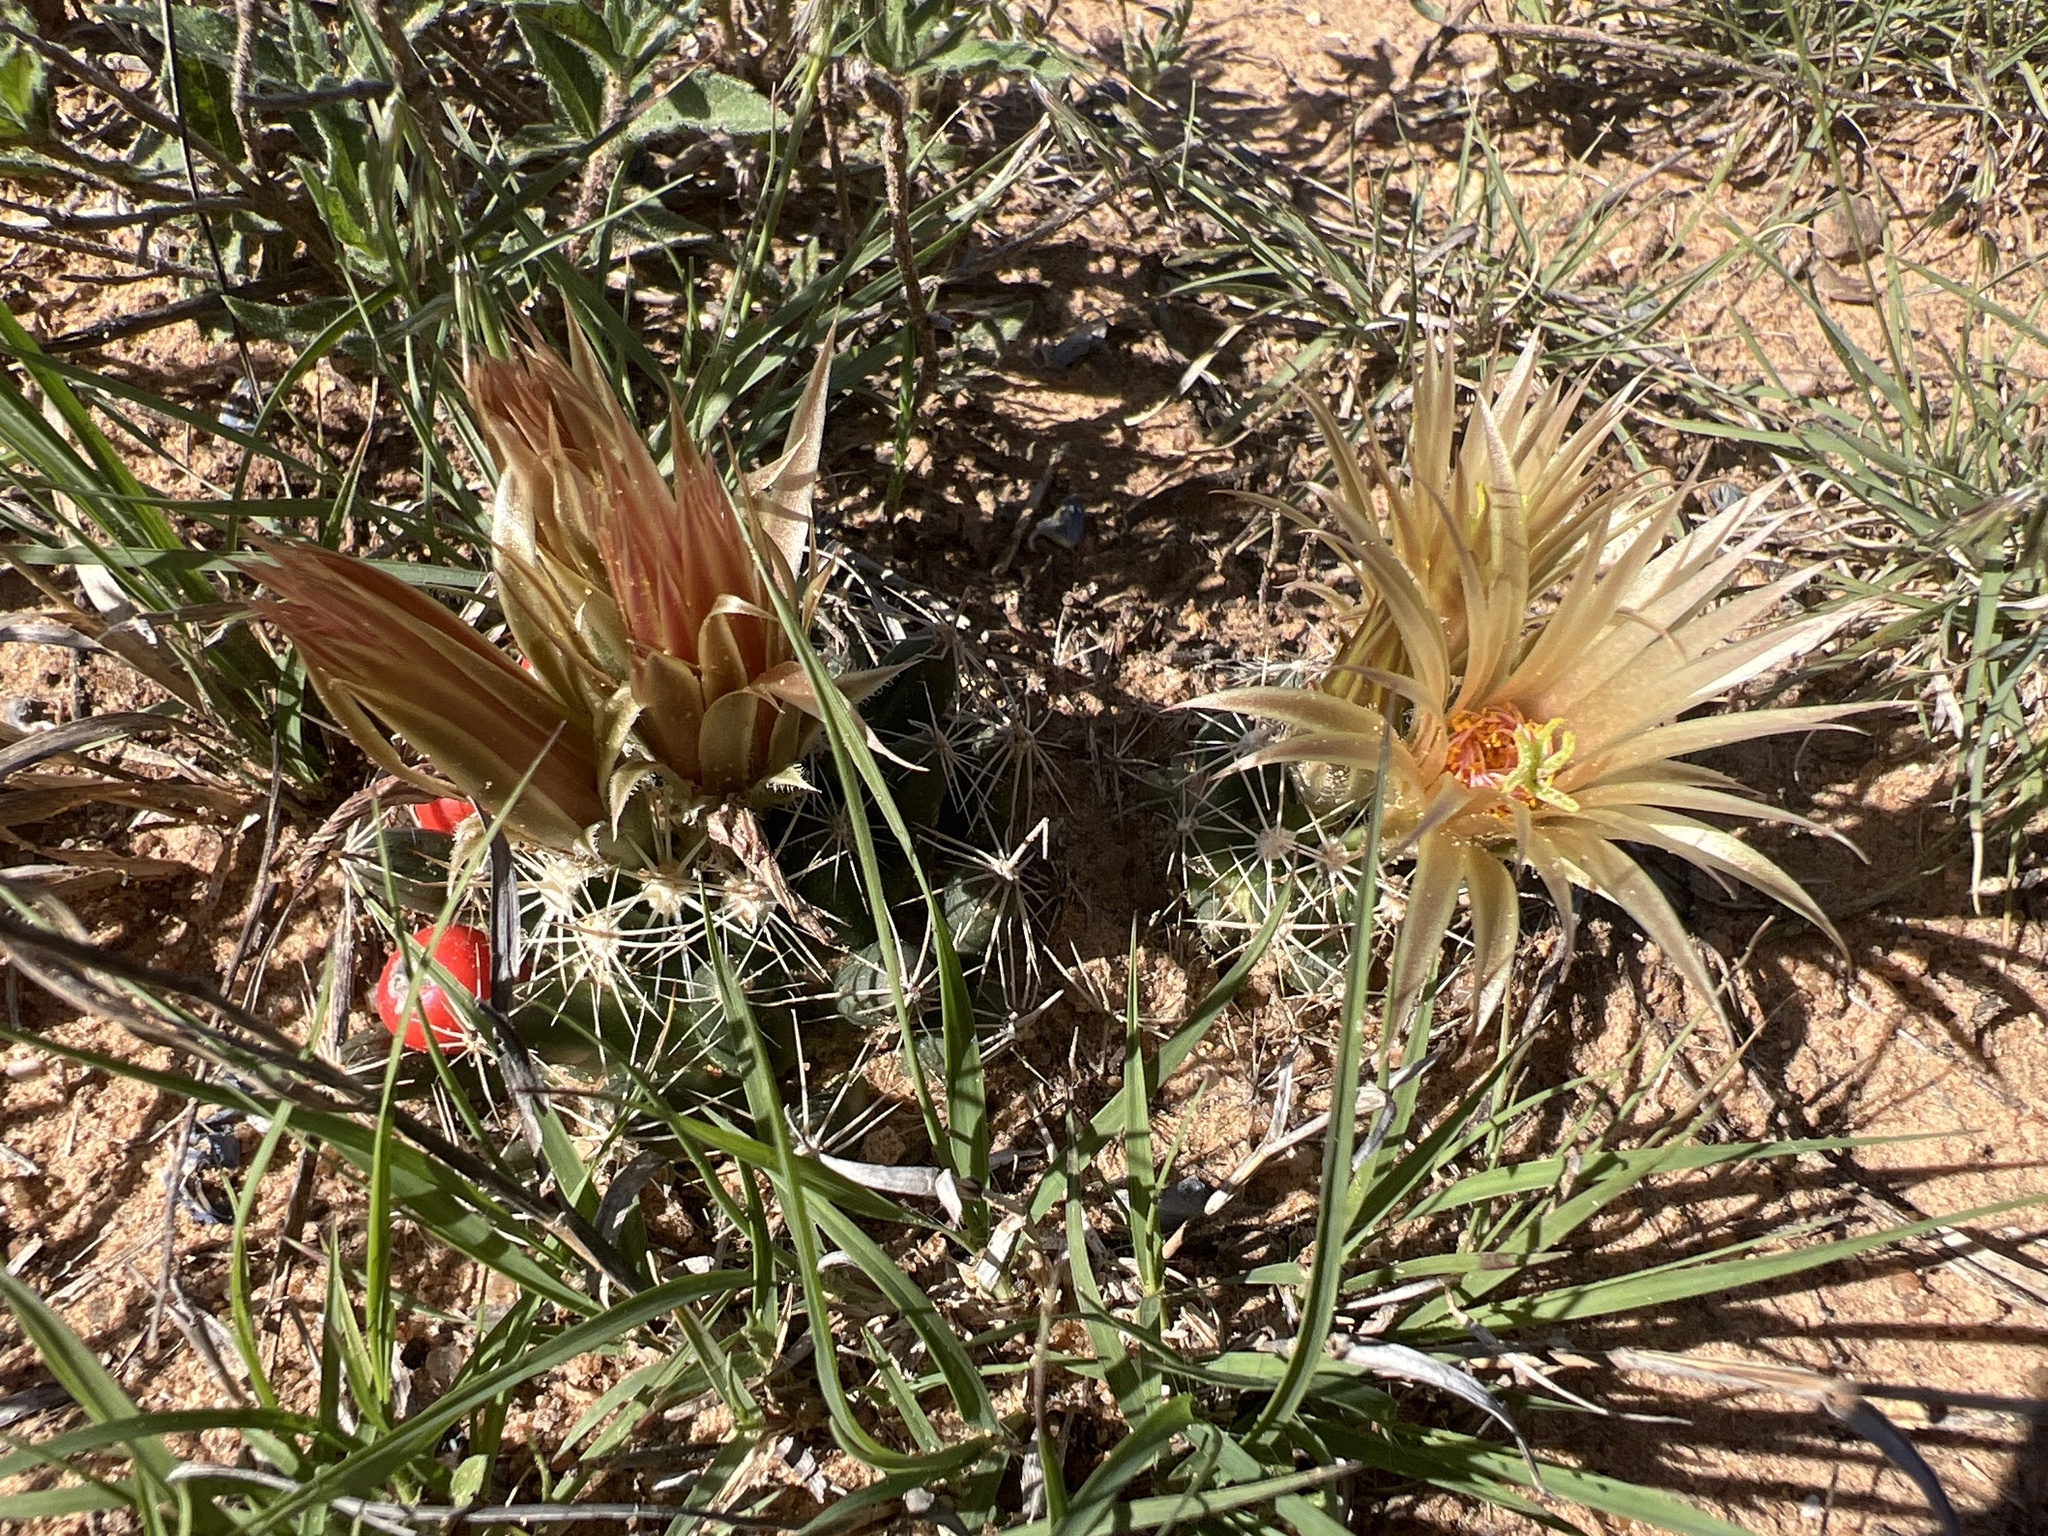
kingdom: Plantae
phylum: Tracheophyta
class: Magnoliopsida
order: Caryophyllales
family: Cactaceae
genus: Pelecyphora
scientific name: Pelecyphora missouriensis
